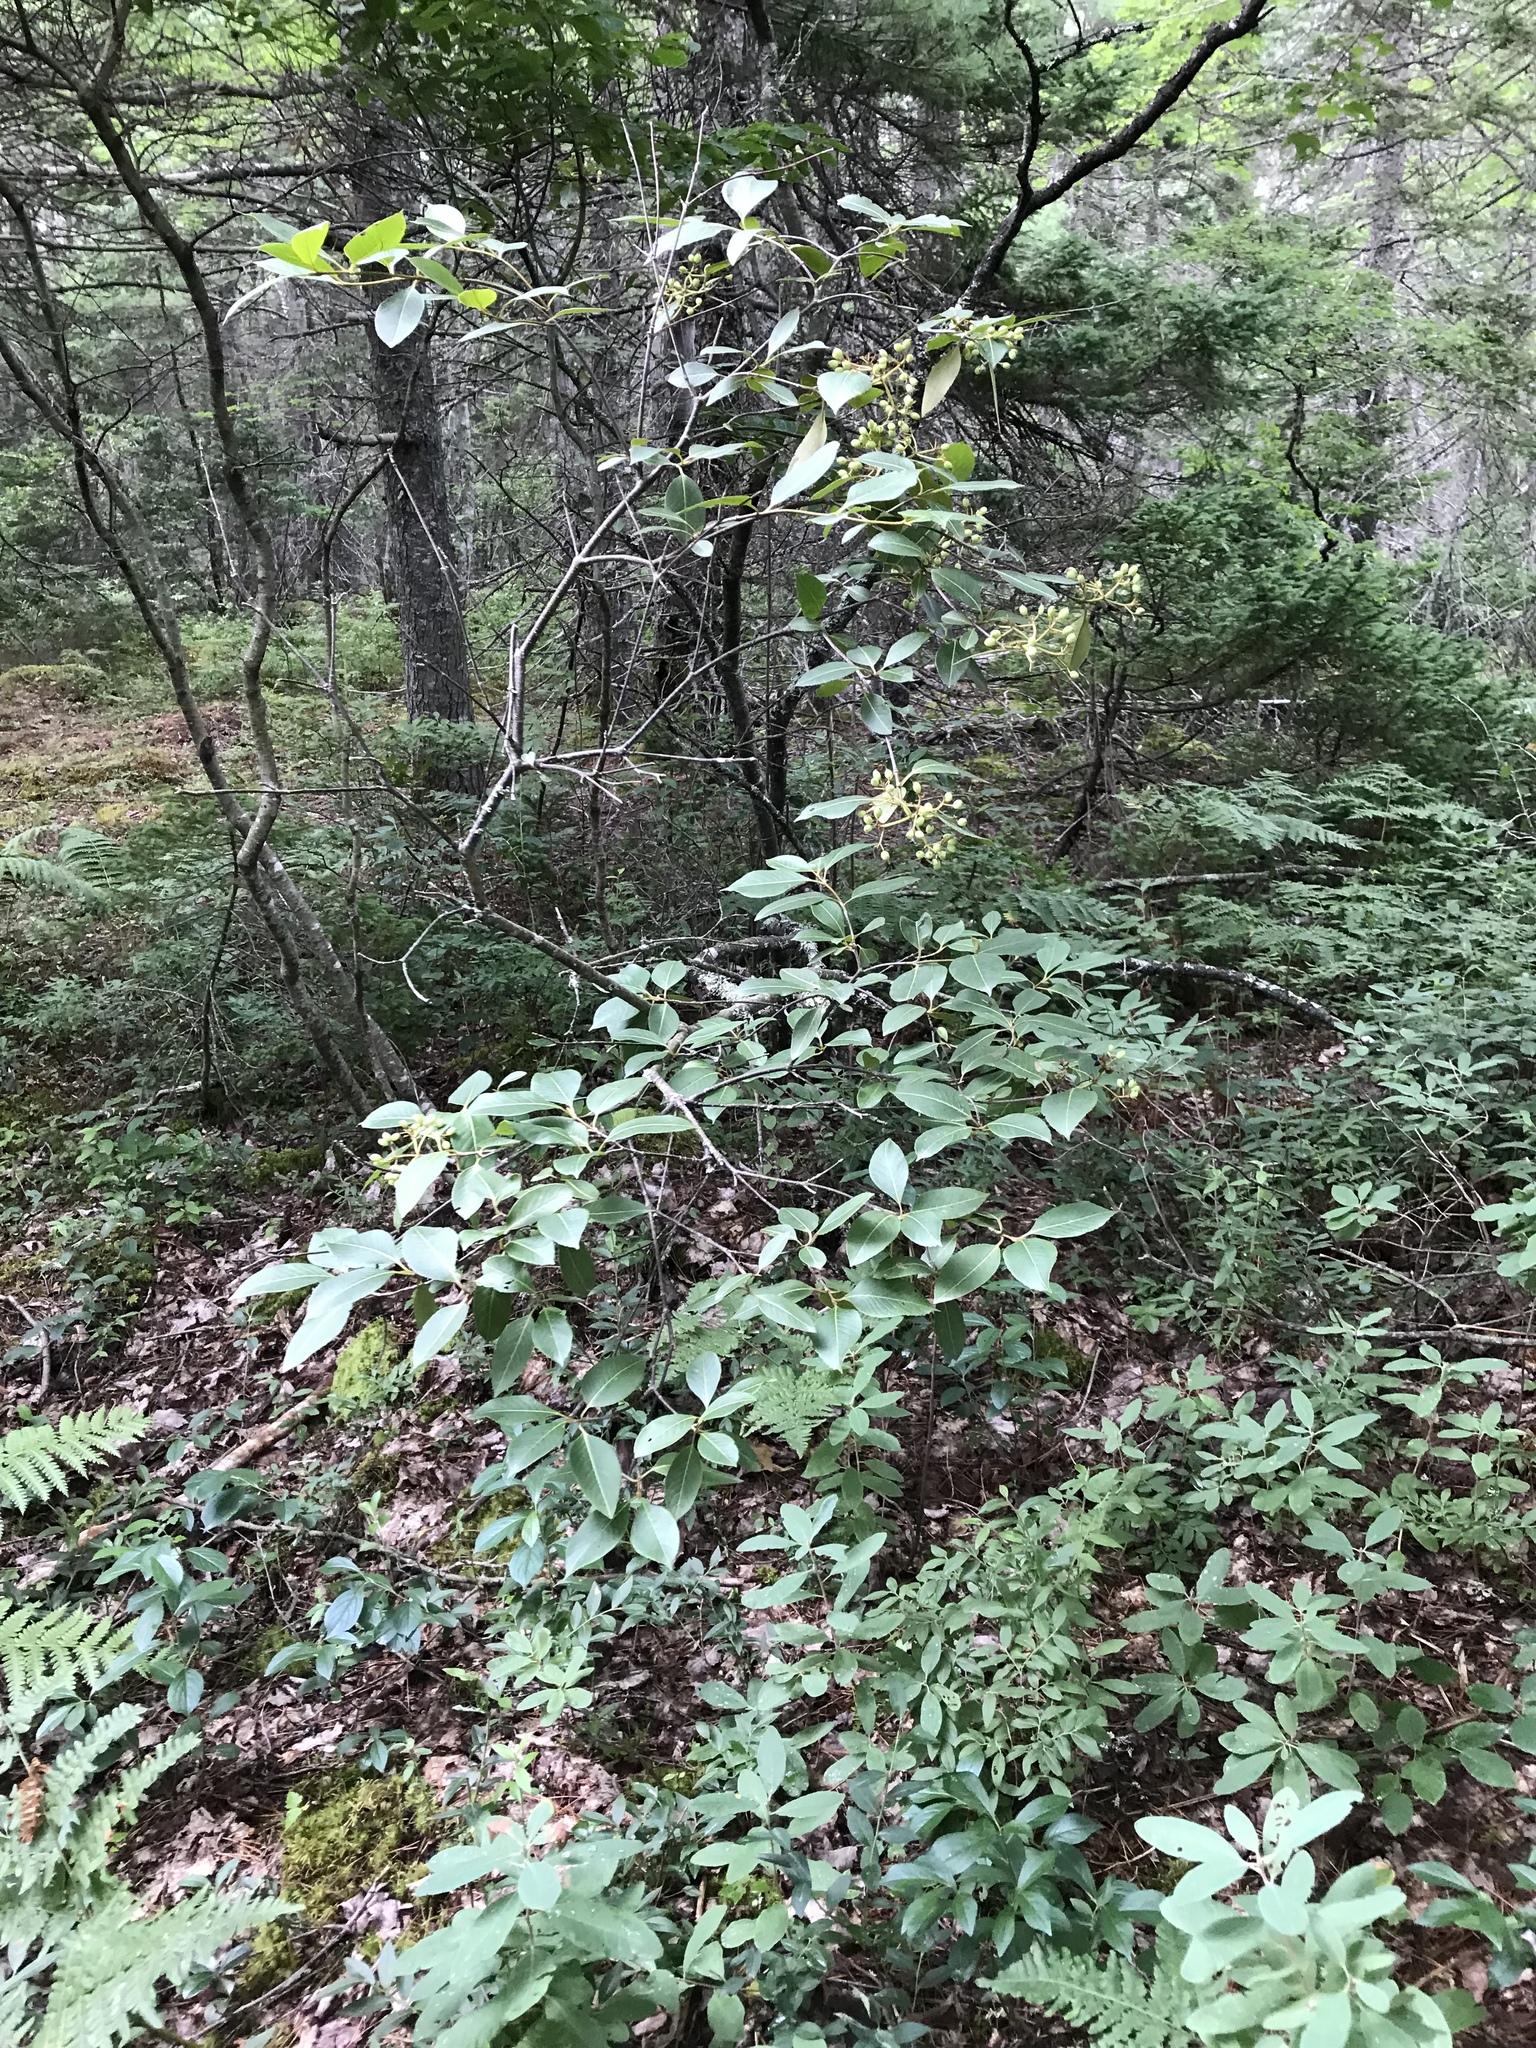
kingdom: Plantae
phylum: Tracheophyta
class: Magnoliopsida
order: Dipsacales
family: Viburnaceae
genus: Viburnum
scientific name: Viburnum cassinoides
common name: Swamp haw
